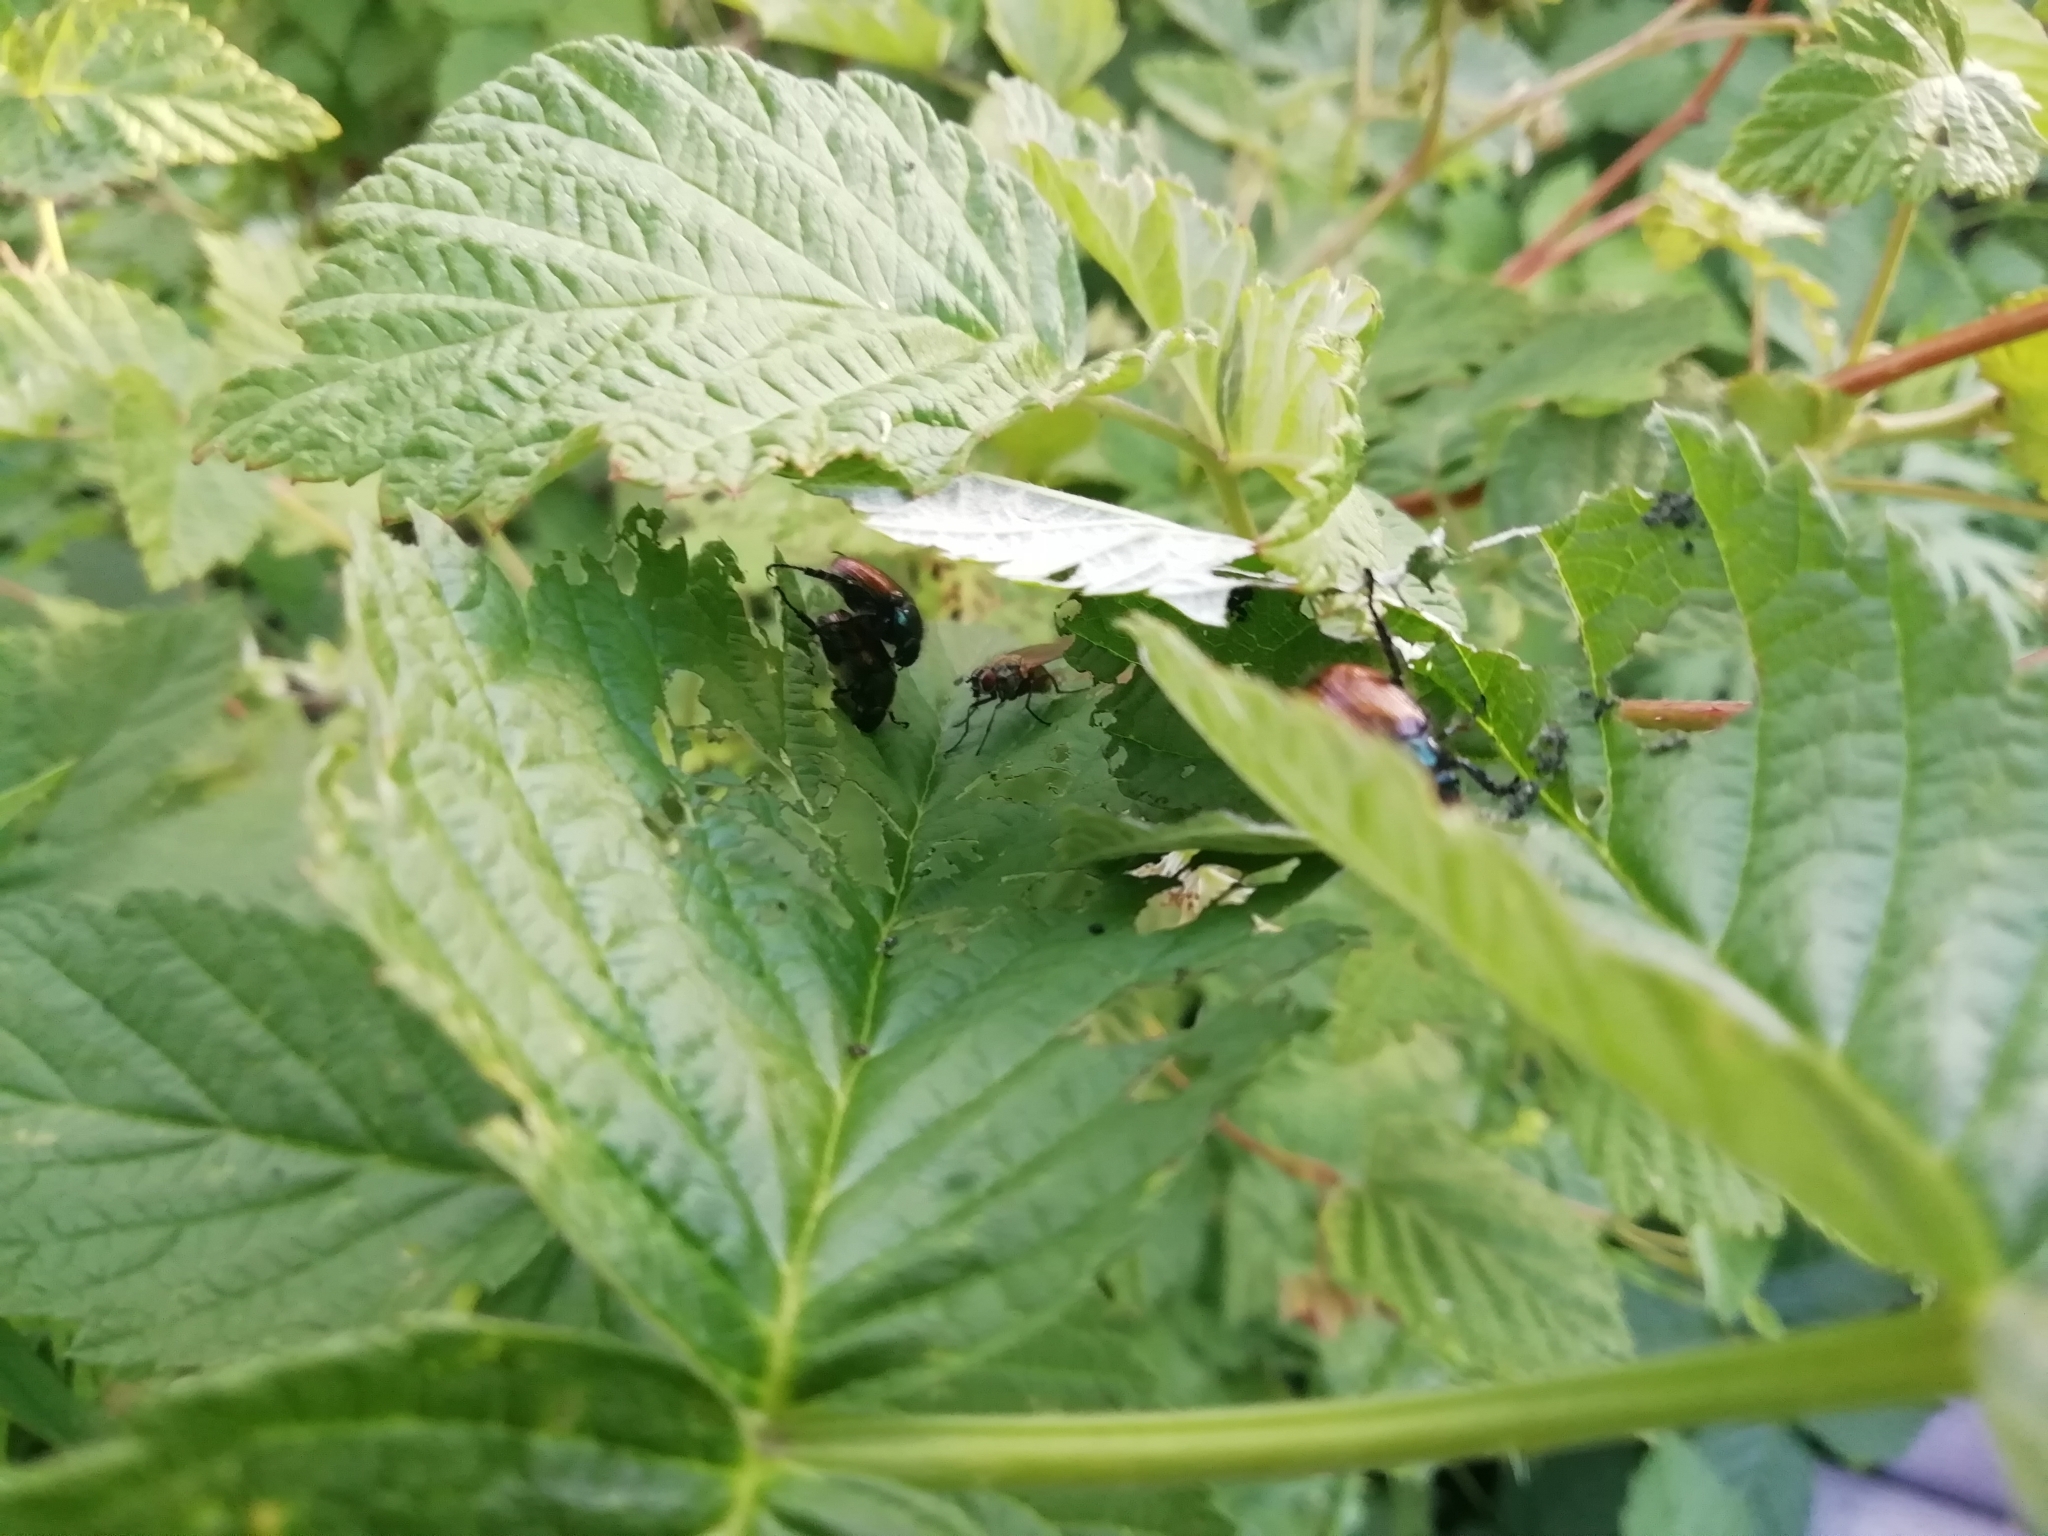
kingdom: Animalia
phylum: Arthropoda
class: Insecta
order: Coleoptera
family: Scarabaeidae
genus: Phyllopertha
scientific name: Phyllopertha horticola
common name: Garden chafer
